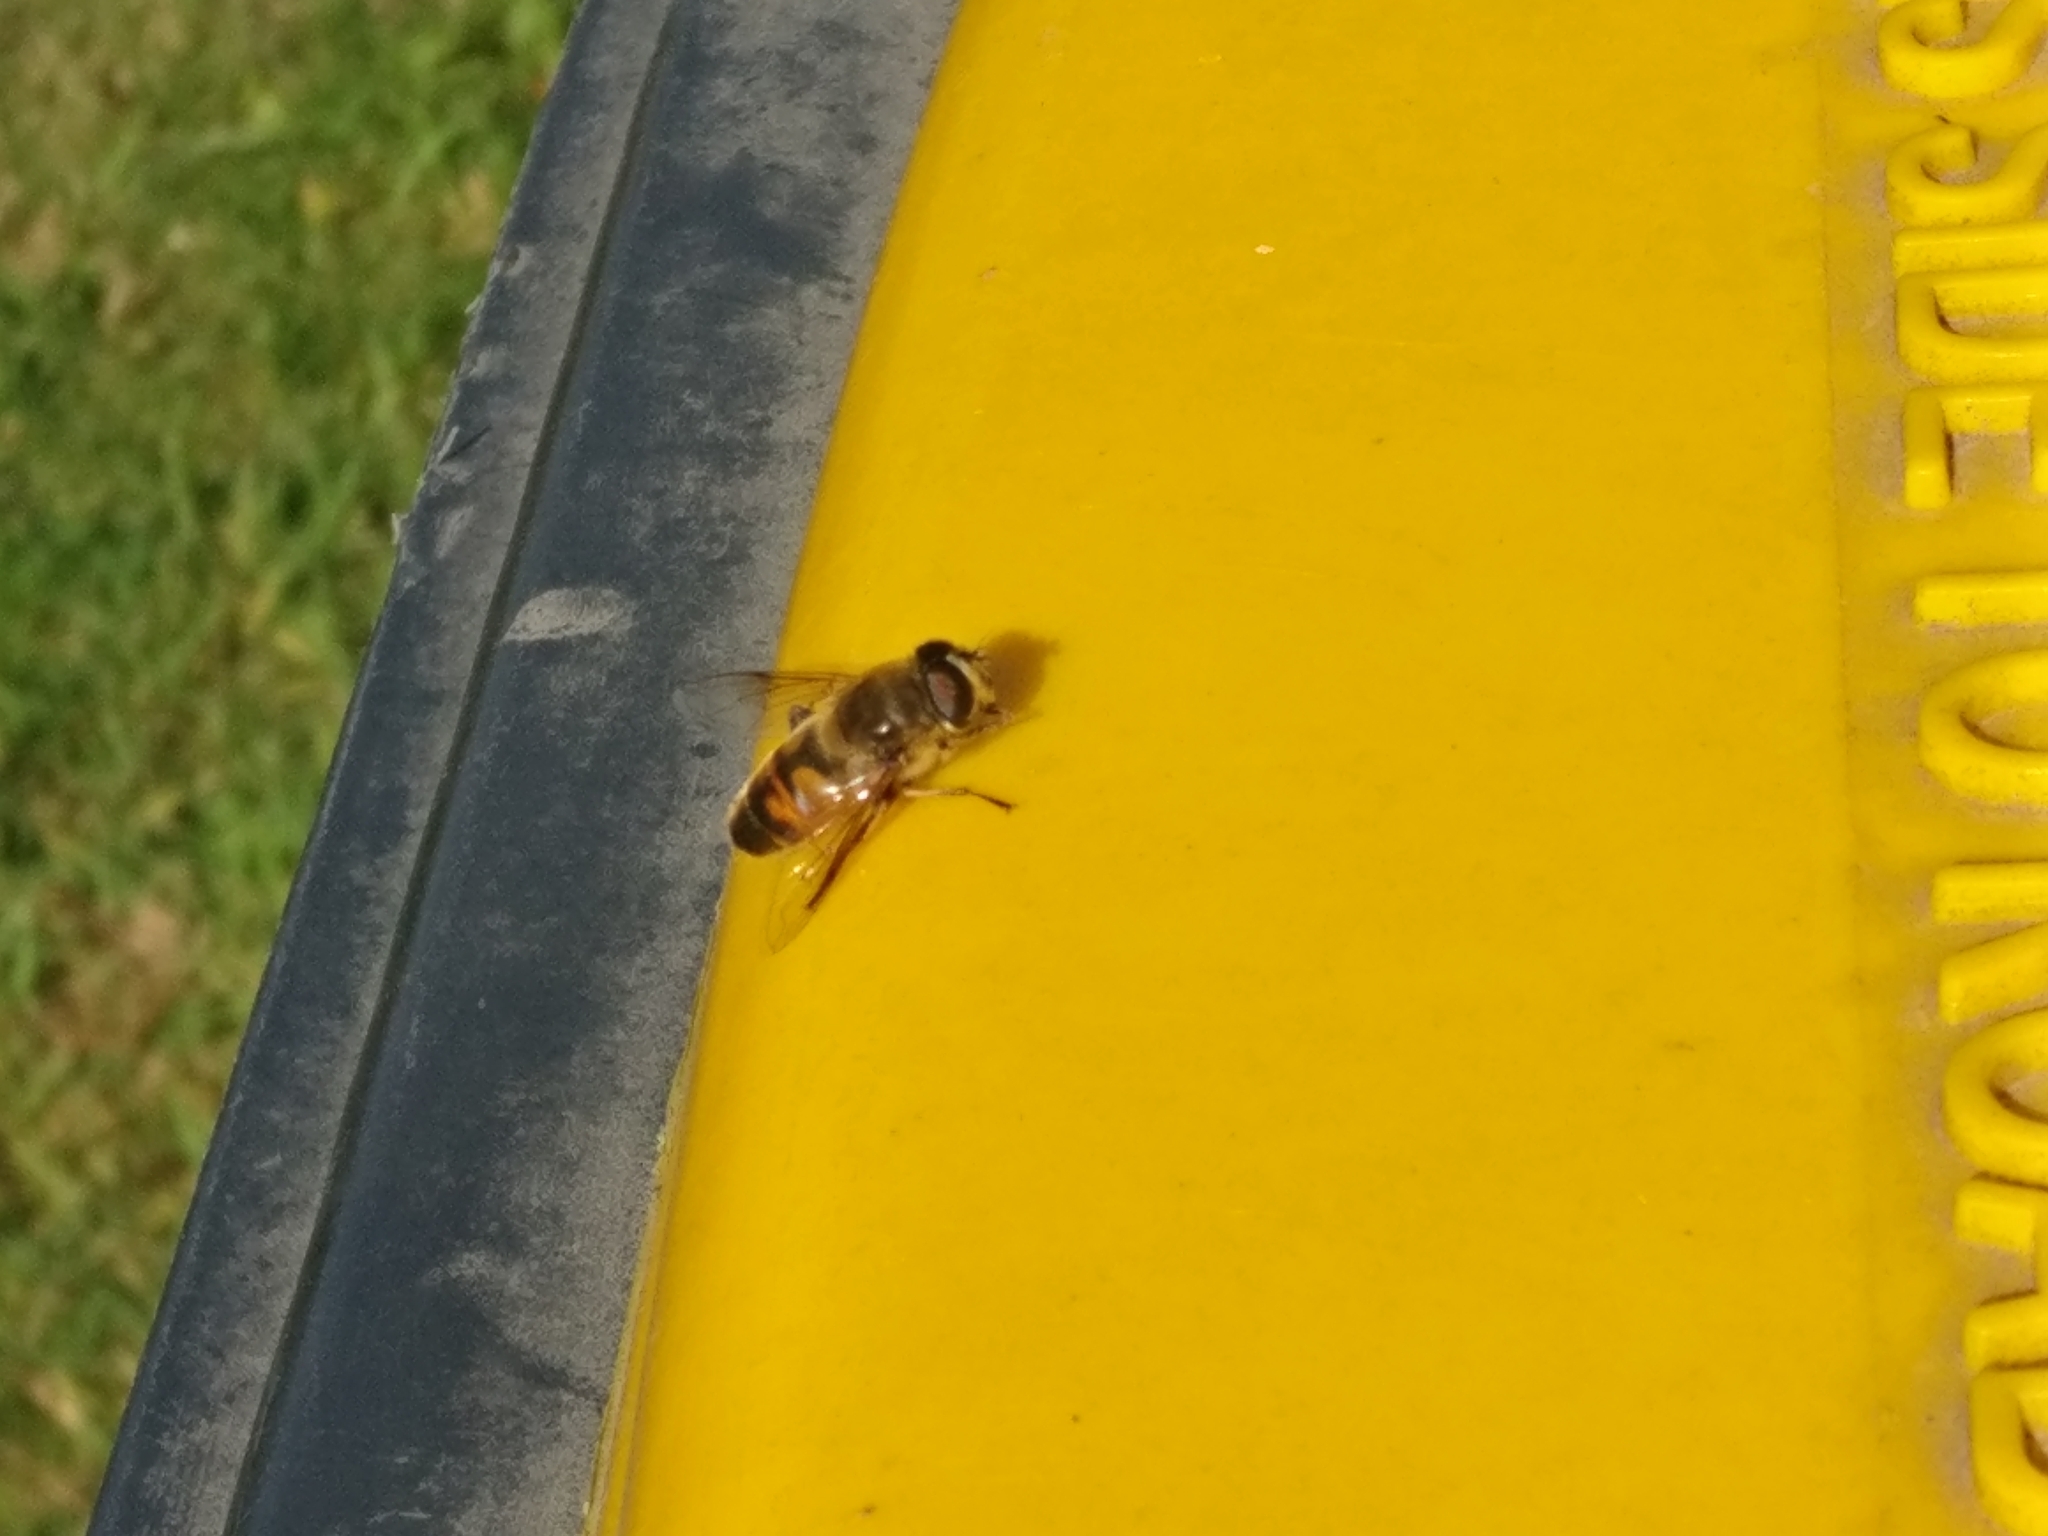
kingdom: Animalia
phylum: Arthropoda
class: Insecta
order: Diptera
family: Syrphidae
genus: Eristalis
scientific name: Eristalis tenax
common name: Drone fly
